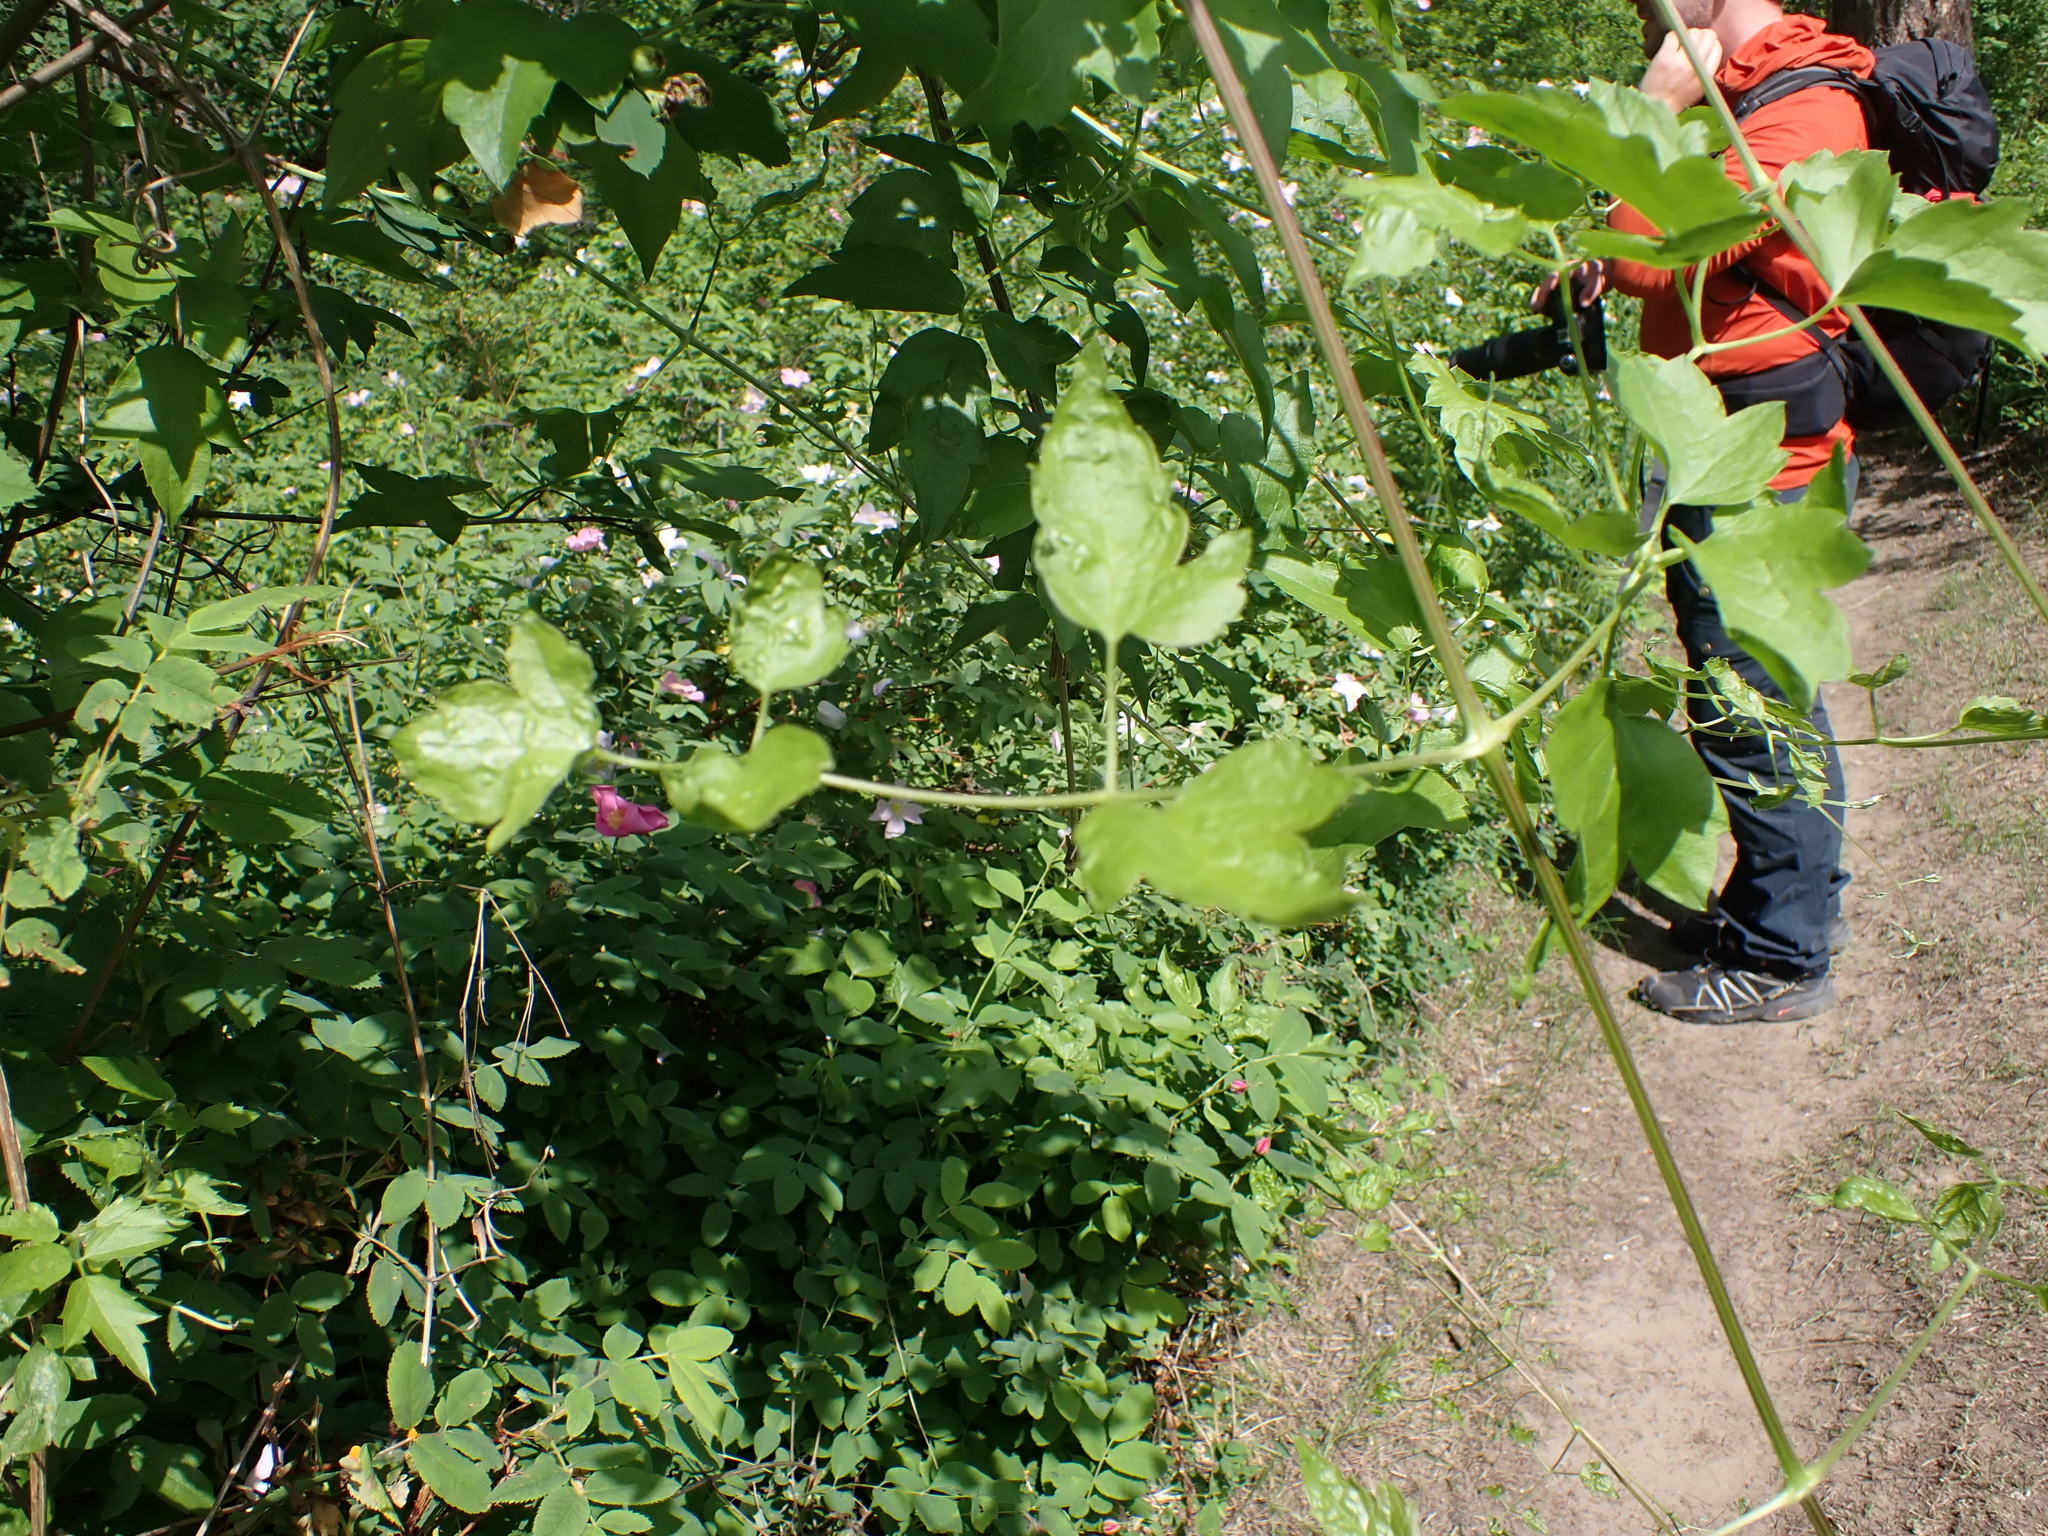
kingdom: Plantae
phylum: Tracheophyta
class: Magnoliopsida
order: Ranunculales
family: Ranunculaceae
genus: Clematis
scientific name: Clematis ligusticifolia
